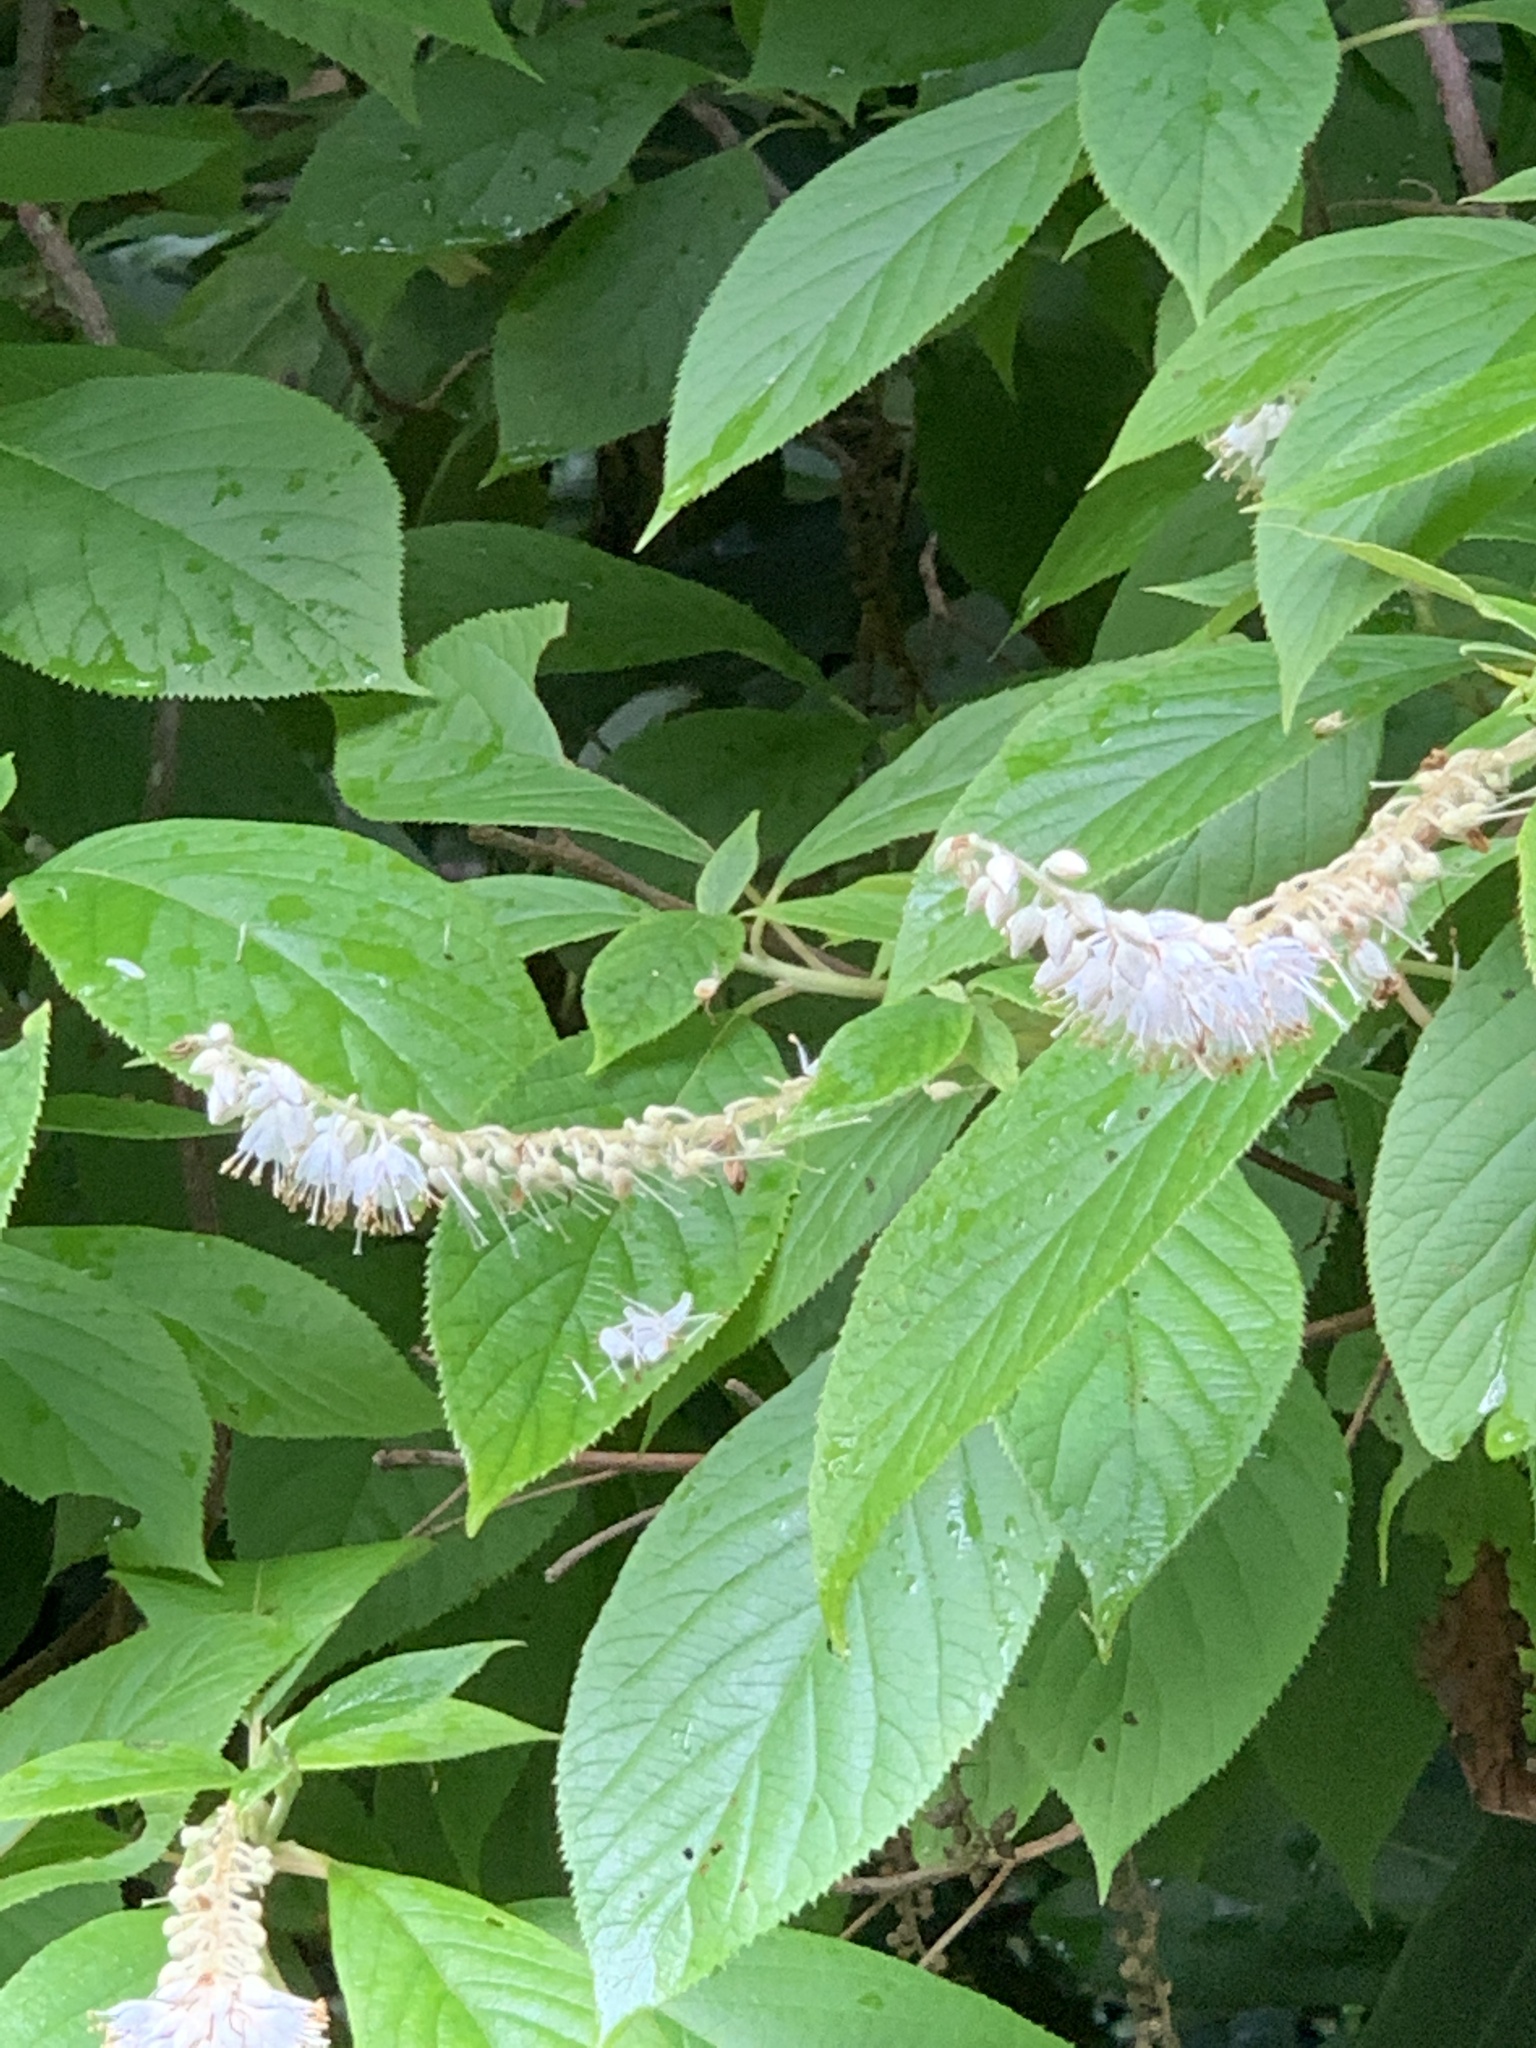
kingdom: Plantae
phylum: Tracheophyta
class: Magnoliopsida
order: Ericales
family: Clethraceae
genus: Clethra
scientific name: Clethra acuminata
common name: Mountain sweet pepperbush
